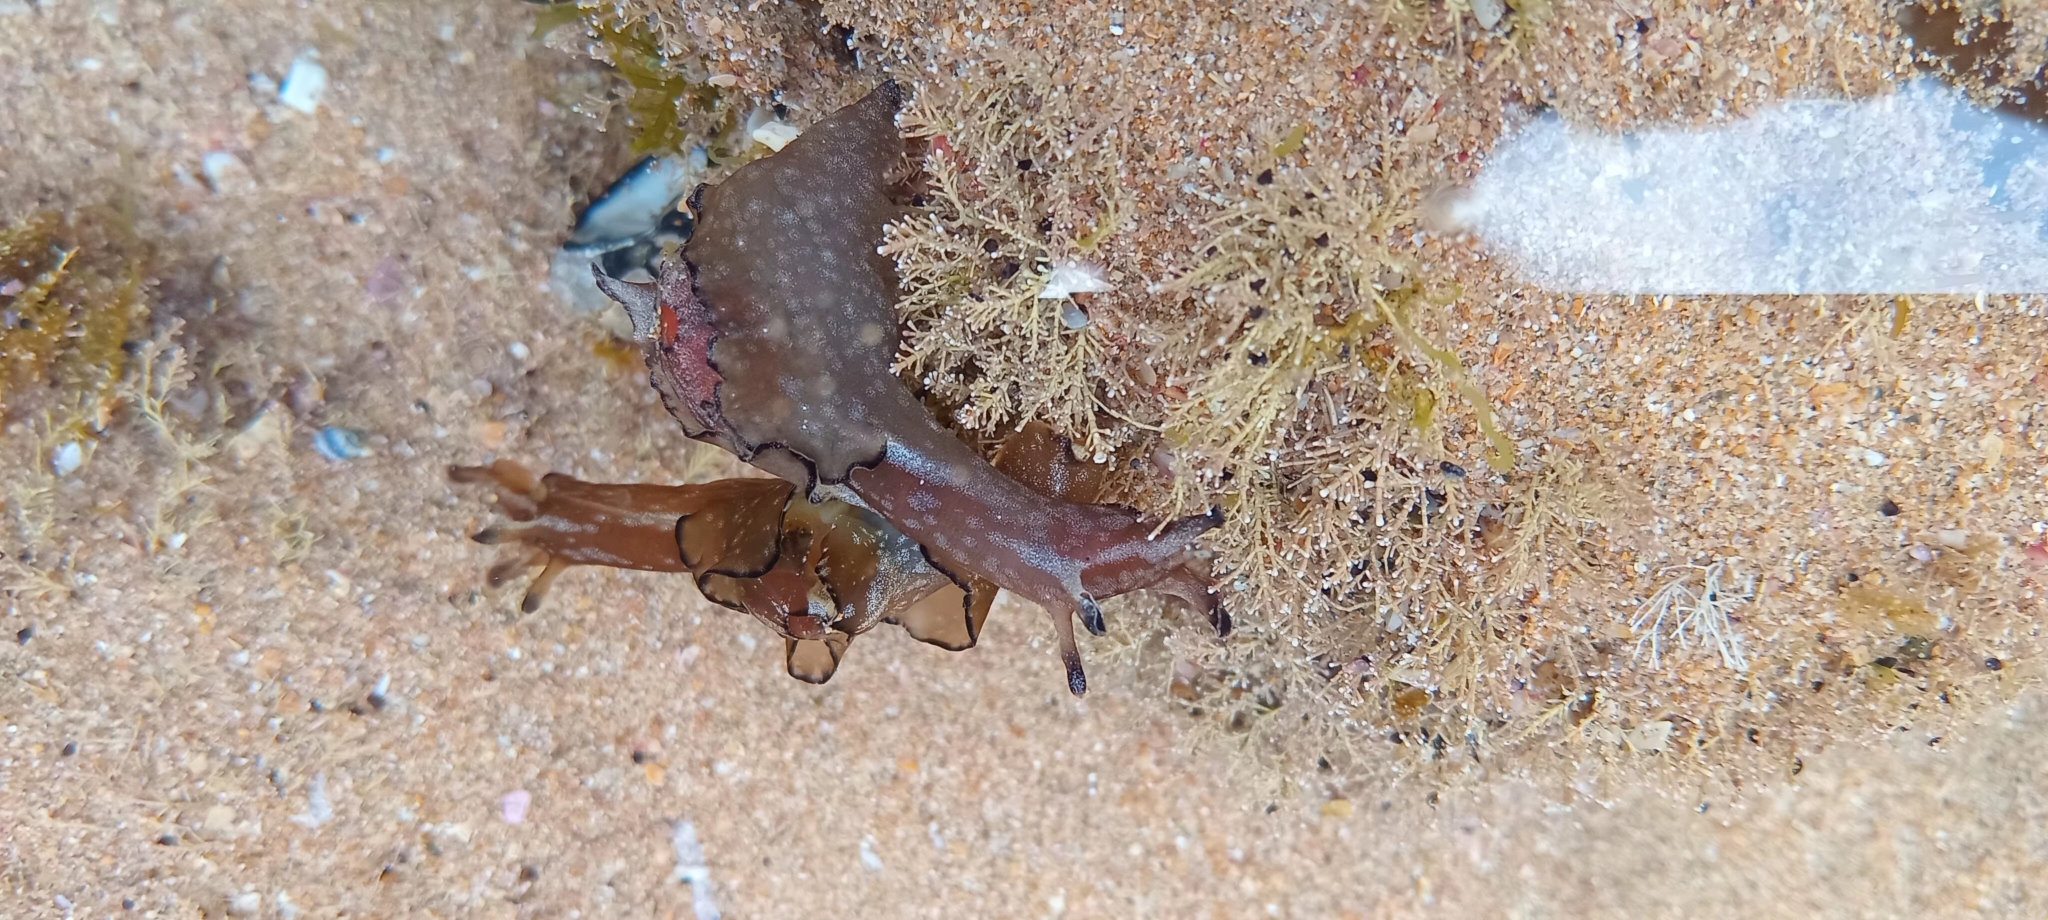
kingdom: Animalia
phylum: Mollusca
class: Gastropoda
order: Aplysiida
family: Aplysiidae
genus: Aplysia
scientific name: Aplysia concava
